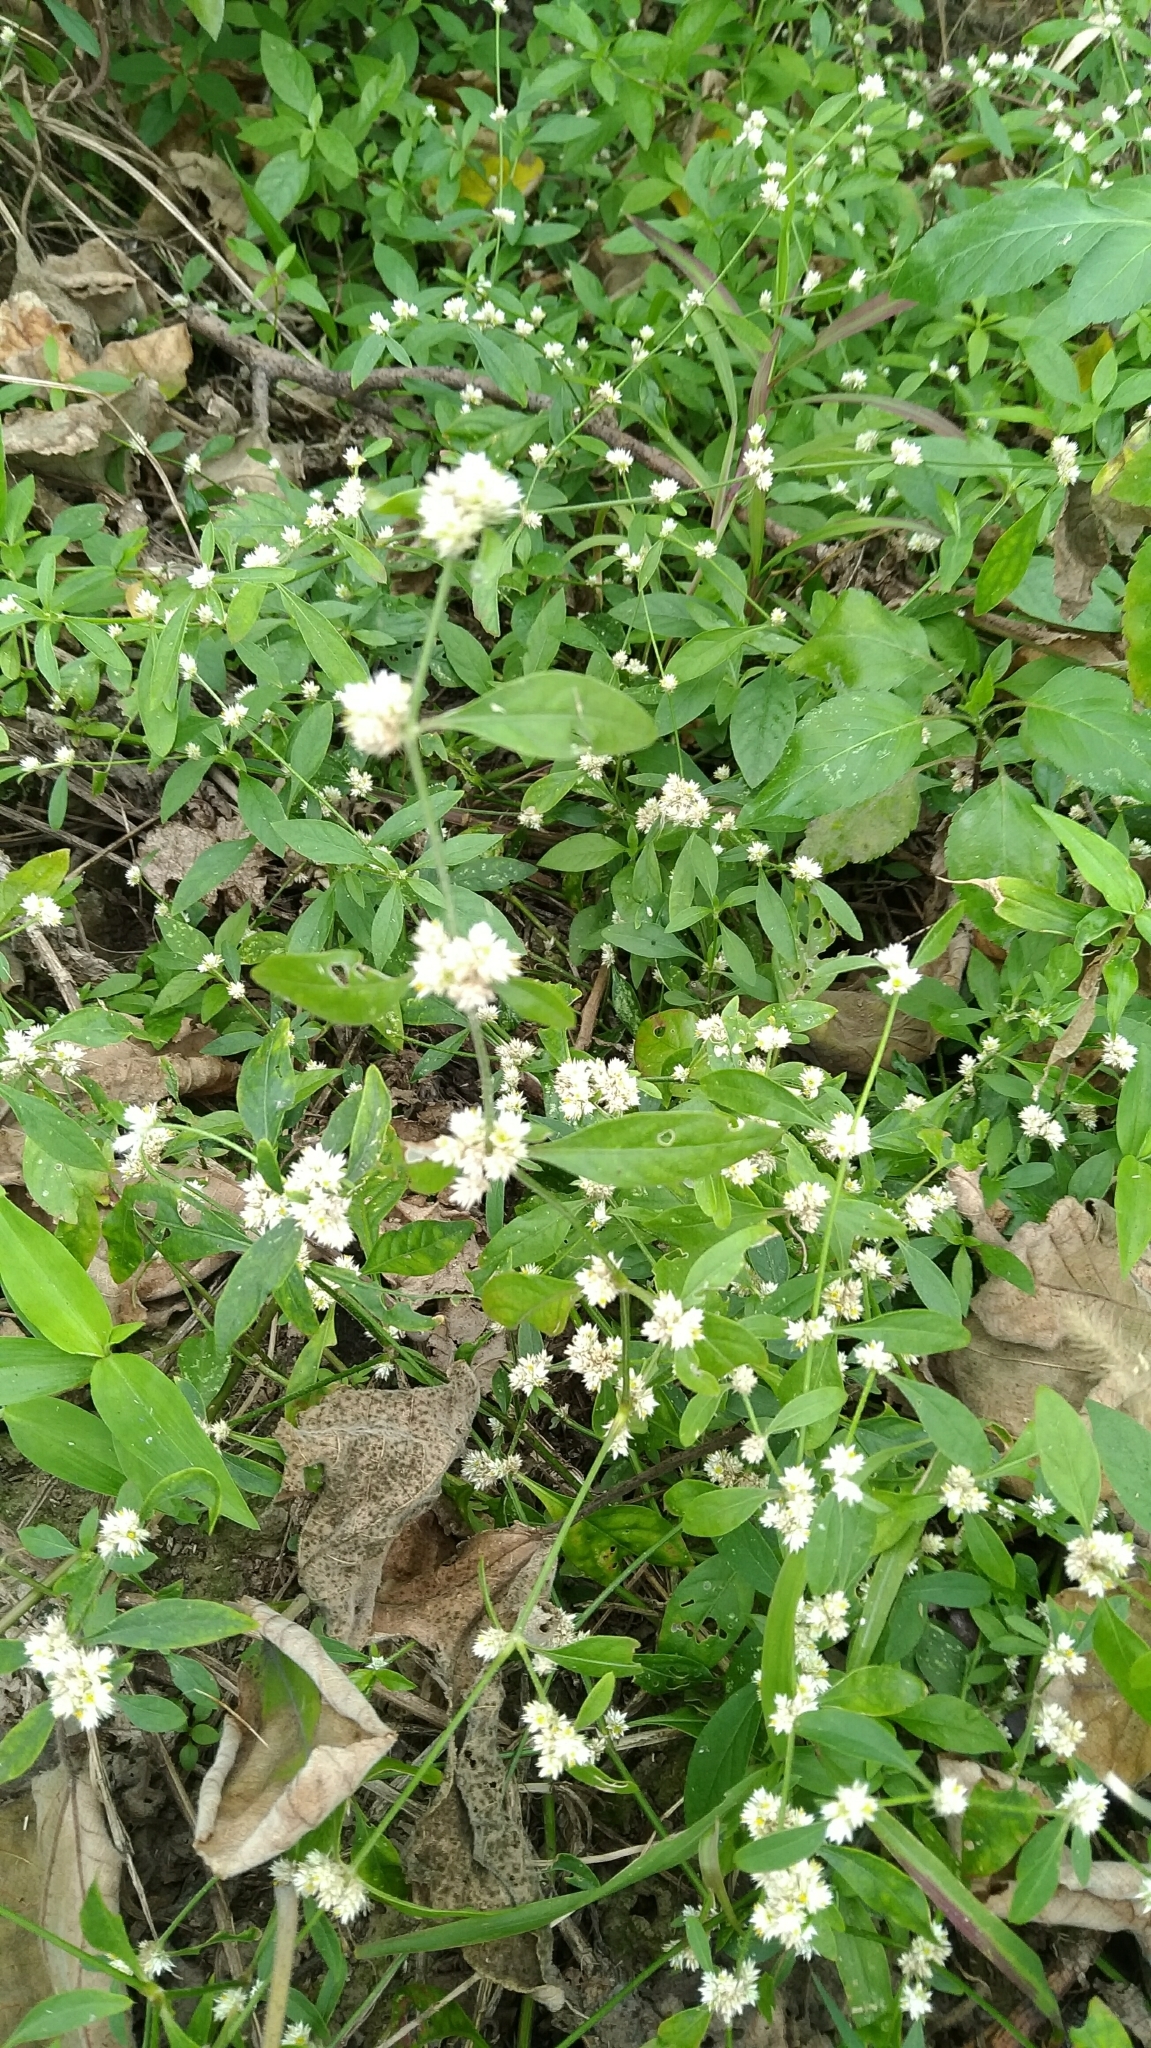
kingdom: Plantae
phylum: Tracheophyta
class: Magnoliopsida
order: Caryophyllales
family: Amaranthaceae
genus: Alternanthera
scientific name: Alternanthera bettzickiana
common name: Calico-plant
